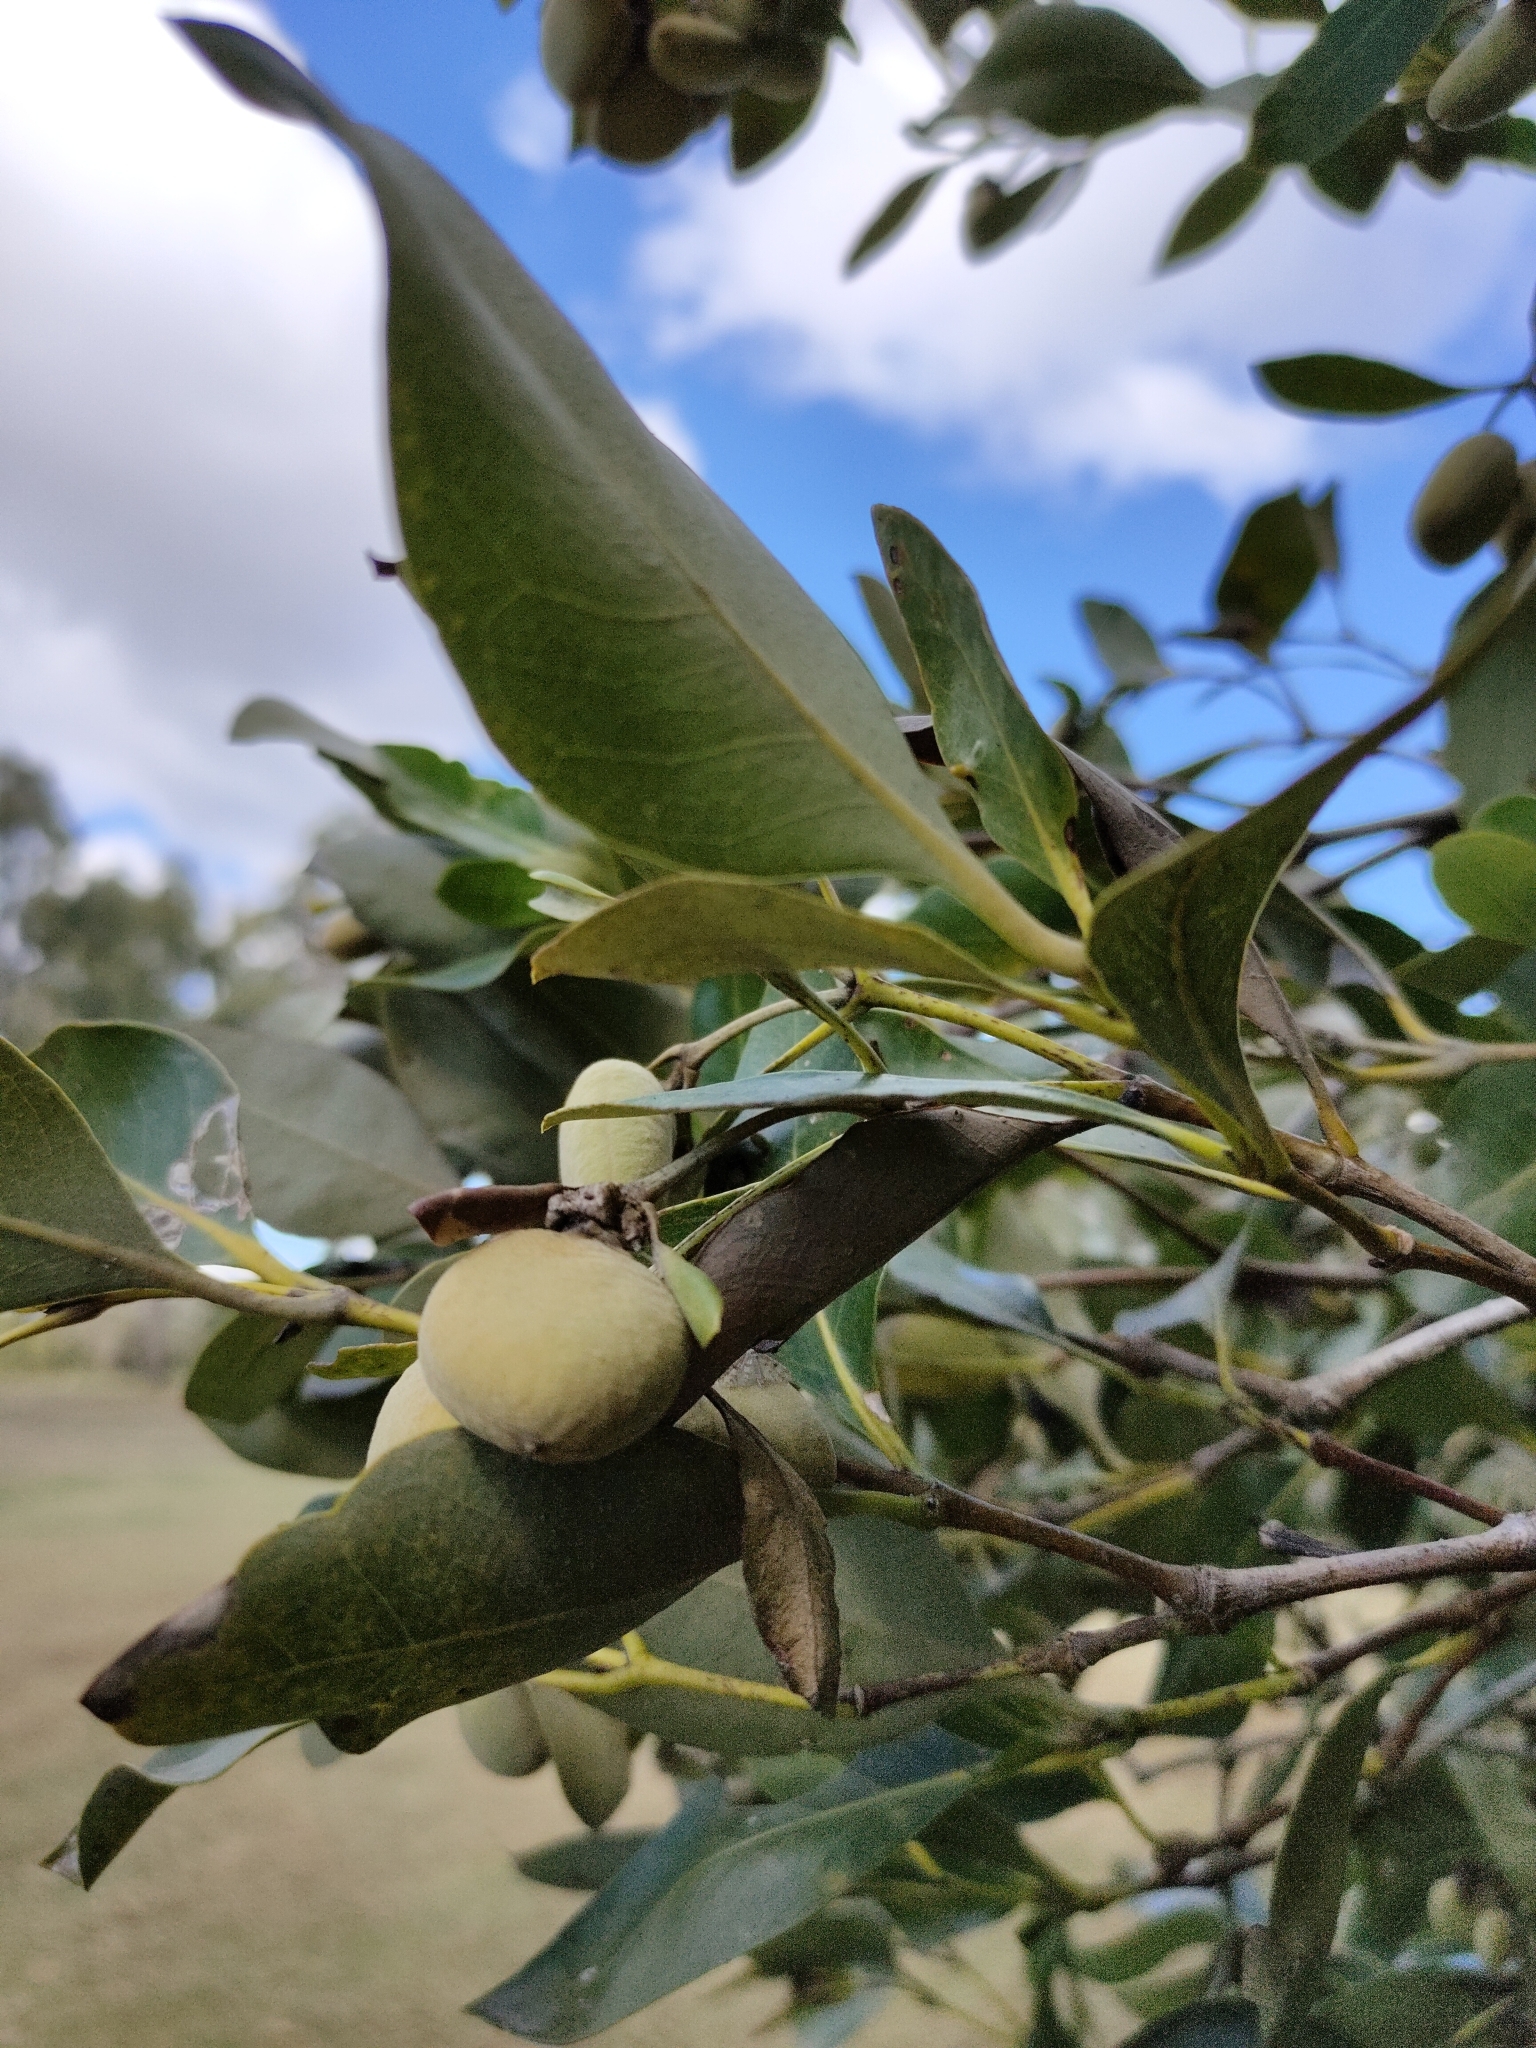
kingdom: Plantae
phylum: Tracheophyta
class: Magnoliopsida
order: Lamiales
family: Acanthaceae
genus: Avicennia
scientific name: Avicennia marina
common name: Gray mangrove
